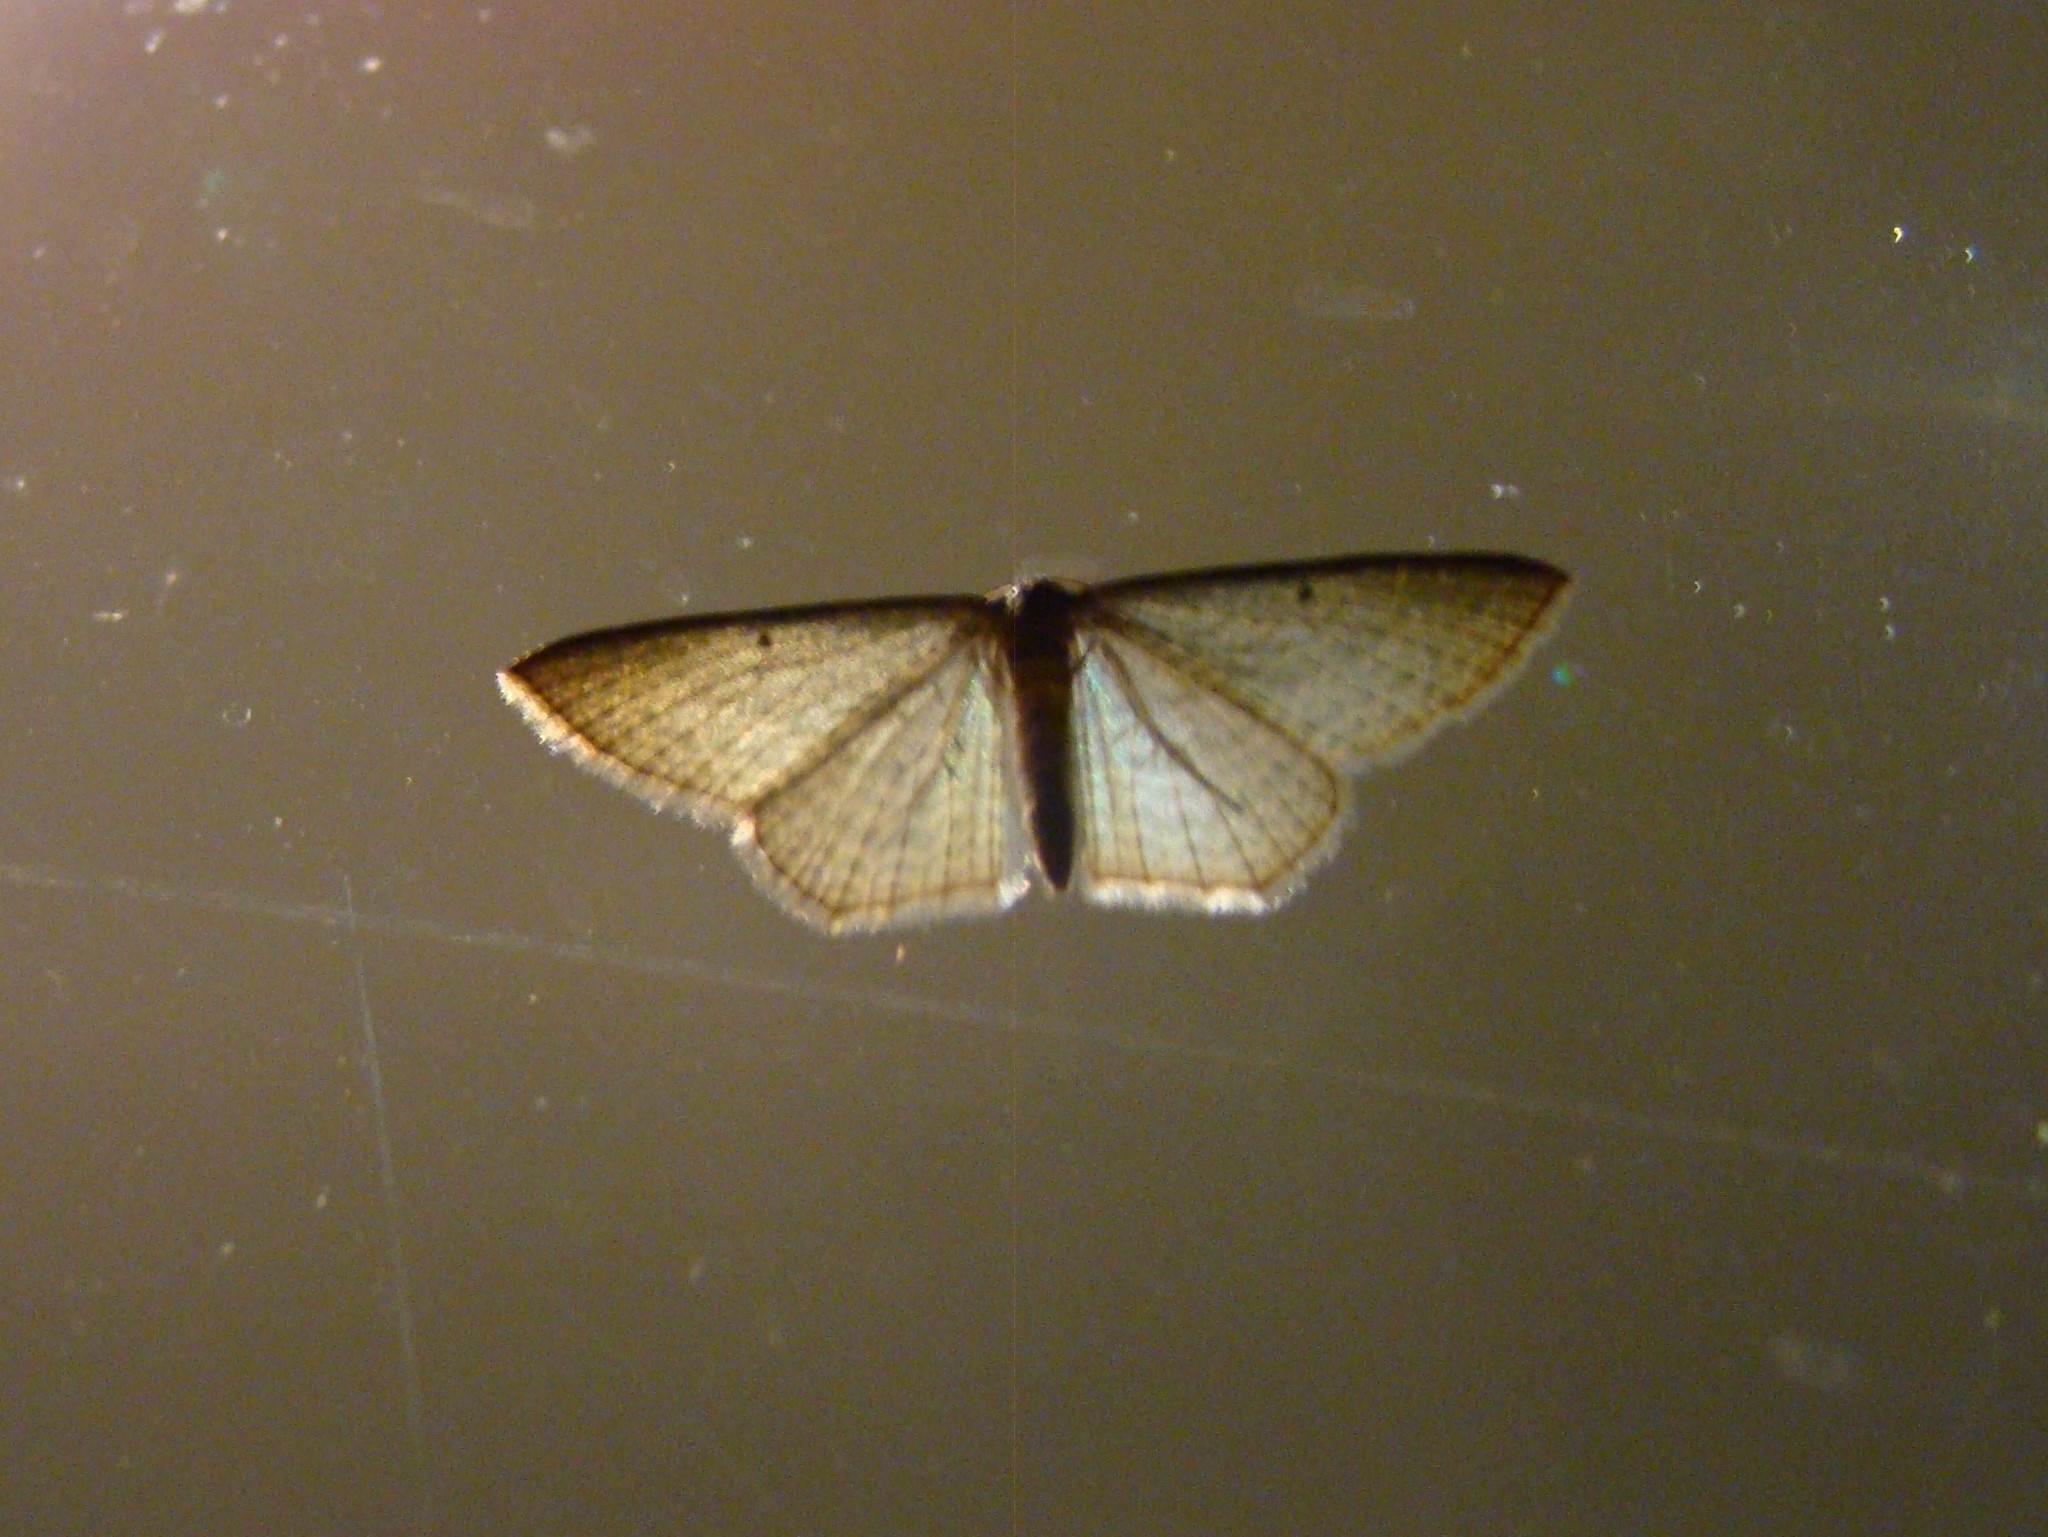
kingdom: Animalia
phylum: Arthropoda
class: Insecta
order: Lepidoptera
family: Geometridae
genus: Poecilasthena
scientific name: Poecilasthena pulchraria
